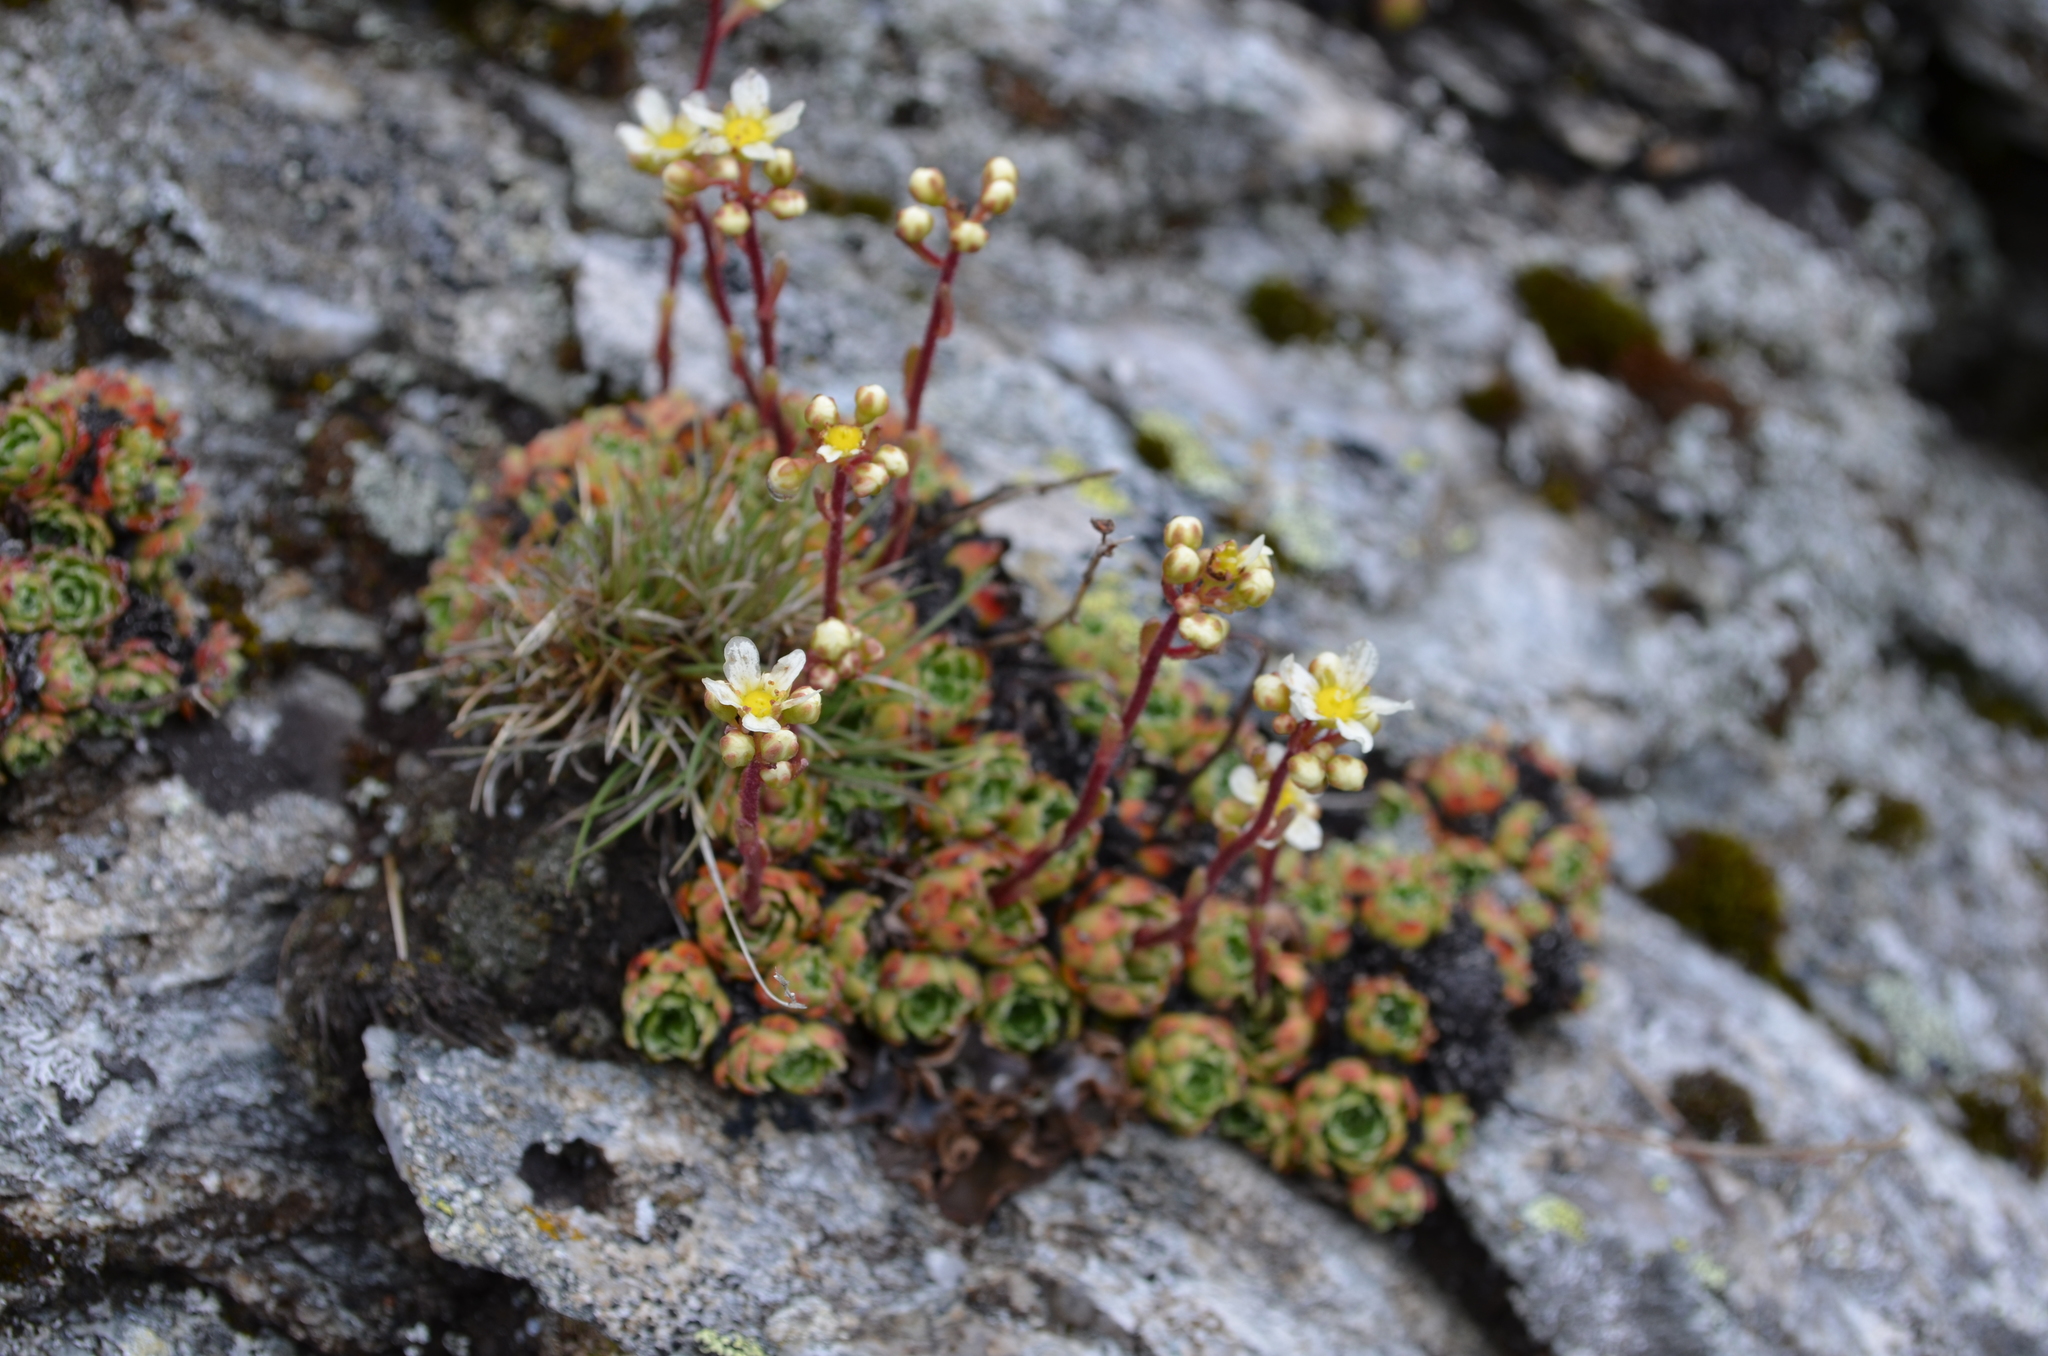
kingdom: Plantae
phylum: Tracheophyta
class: Magnoliopsida
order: Saxifragales
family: Saxifragaceae
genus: Saxifraga
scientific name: Saxifraga paniculata
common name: Livelong saxifrage
